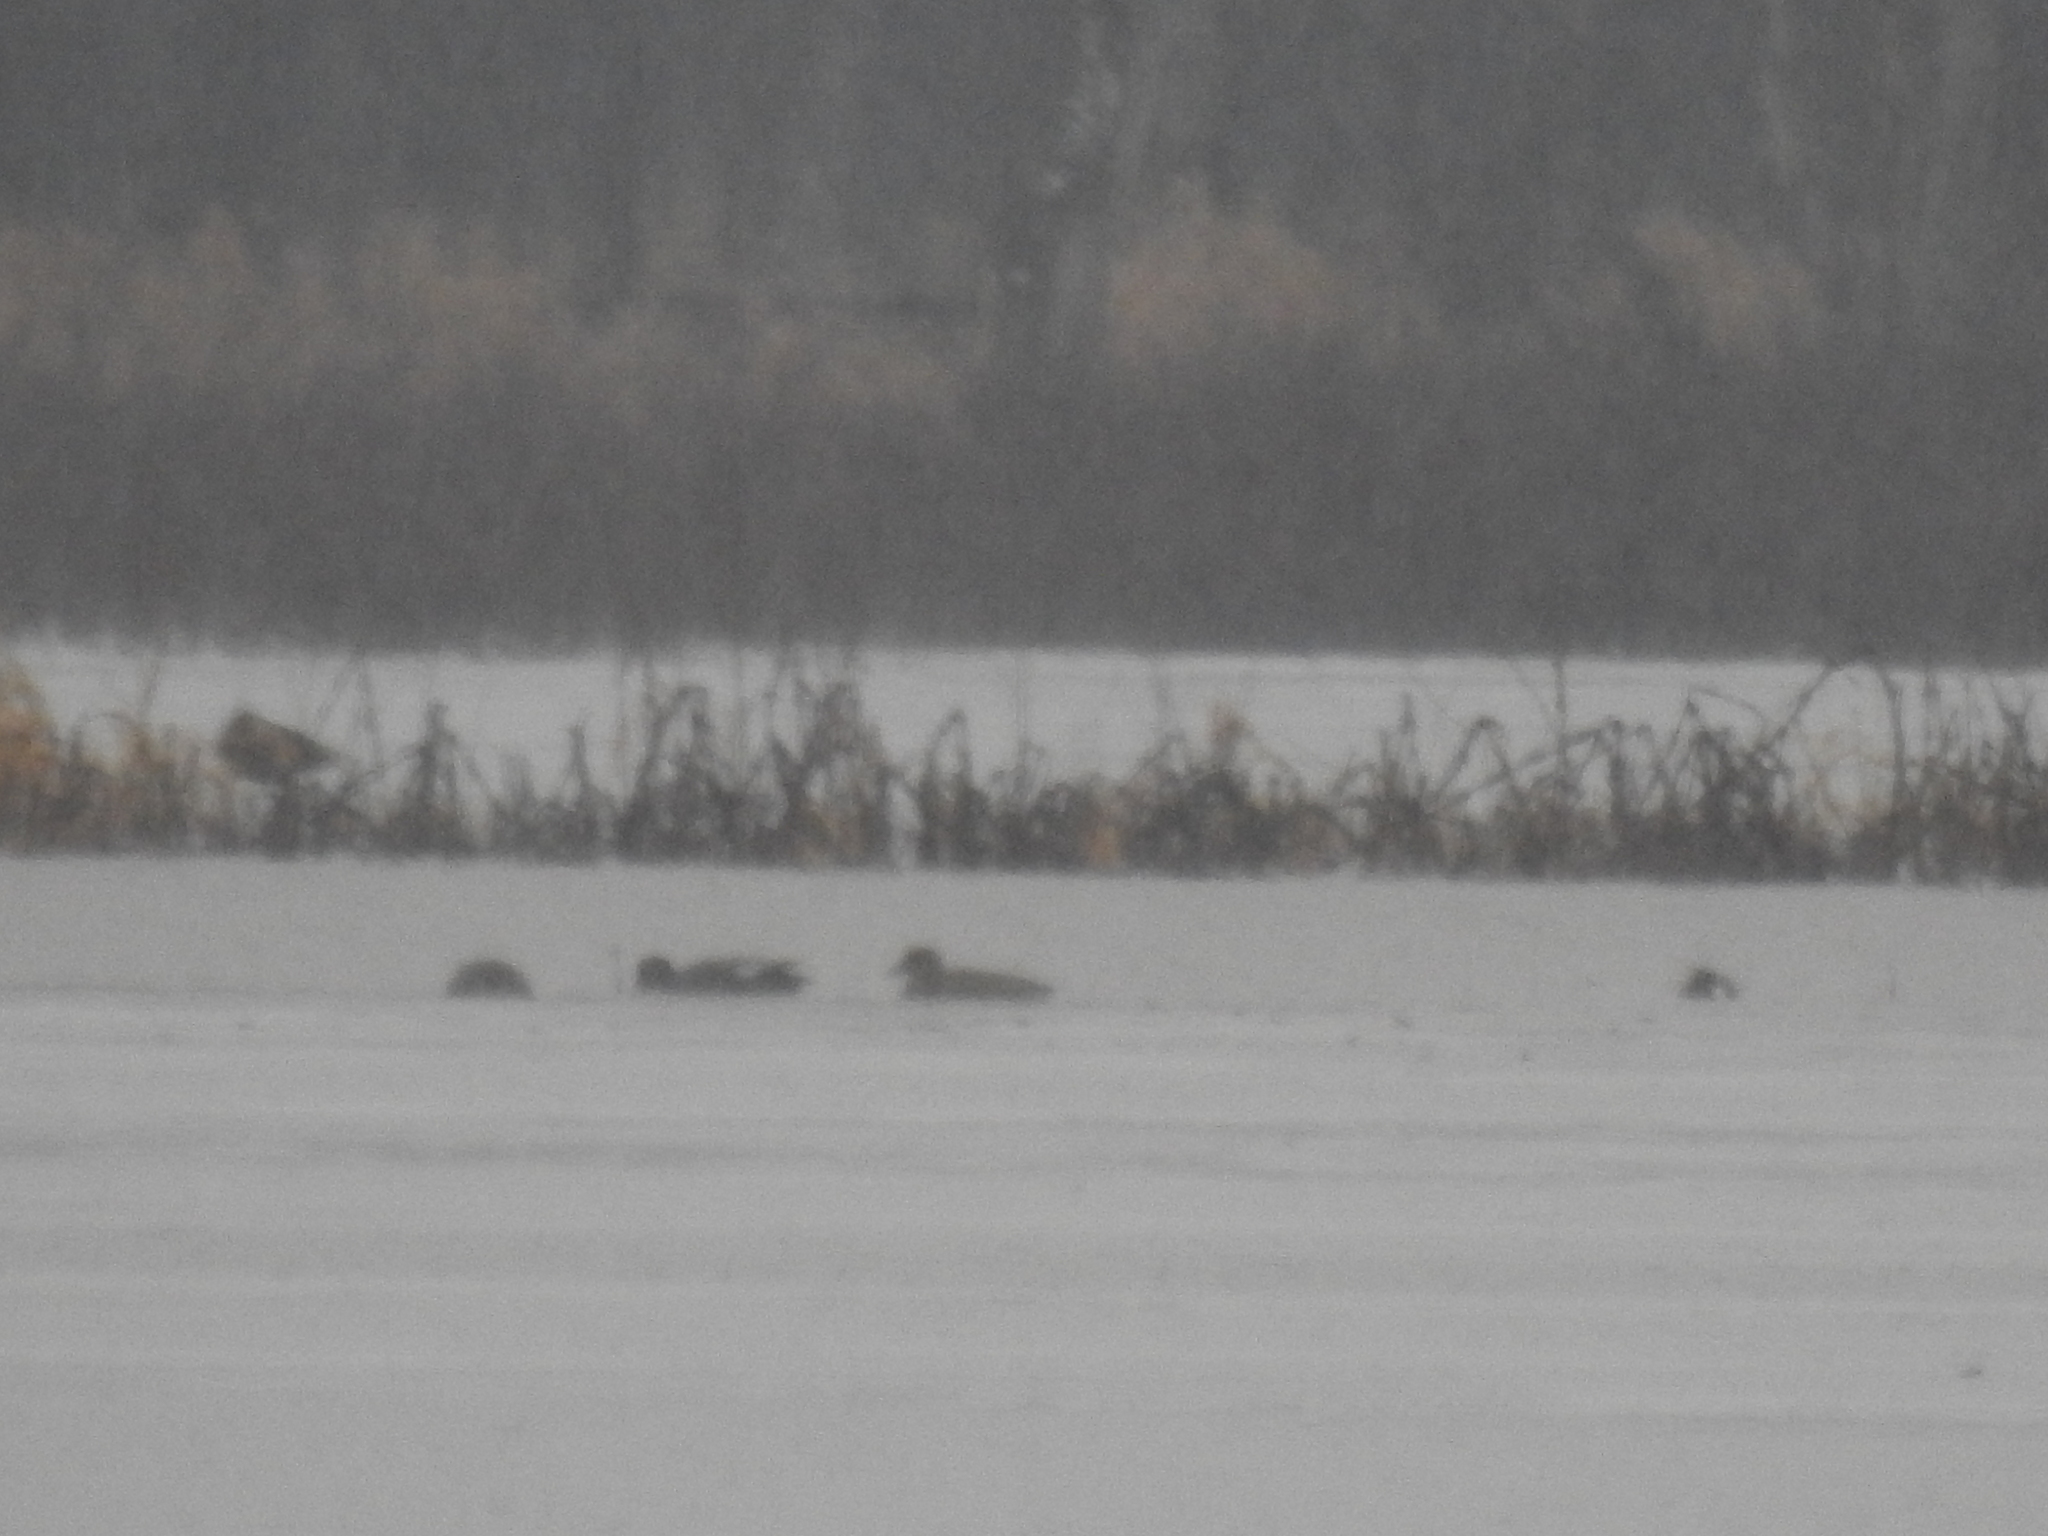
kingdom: Animalia
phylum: Chordata
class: Aves
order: Anseriformes
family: Anatidae
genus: Mareca
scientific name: Mareca strepera
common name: Gadwall
